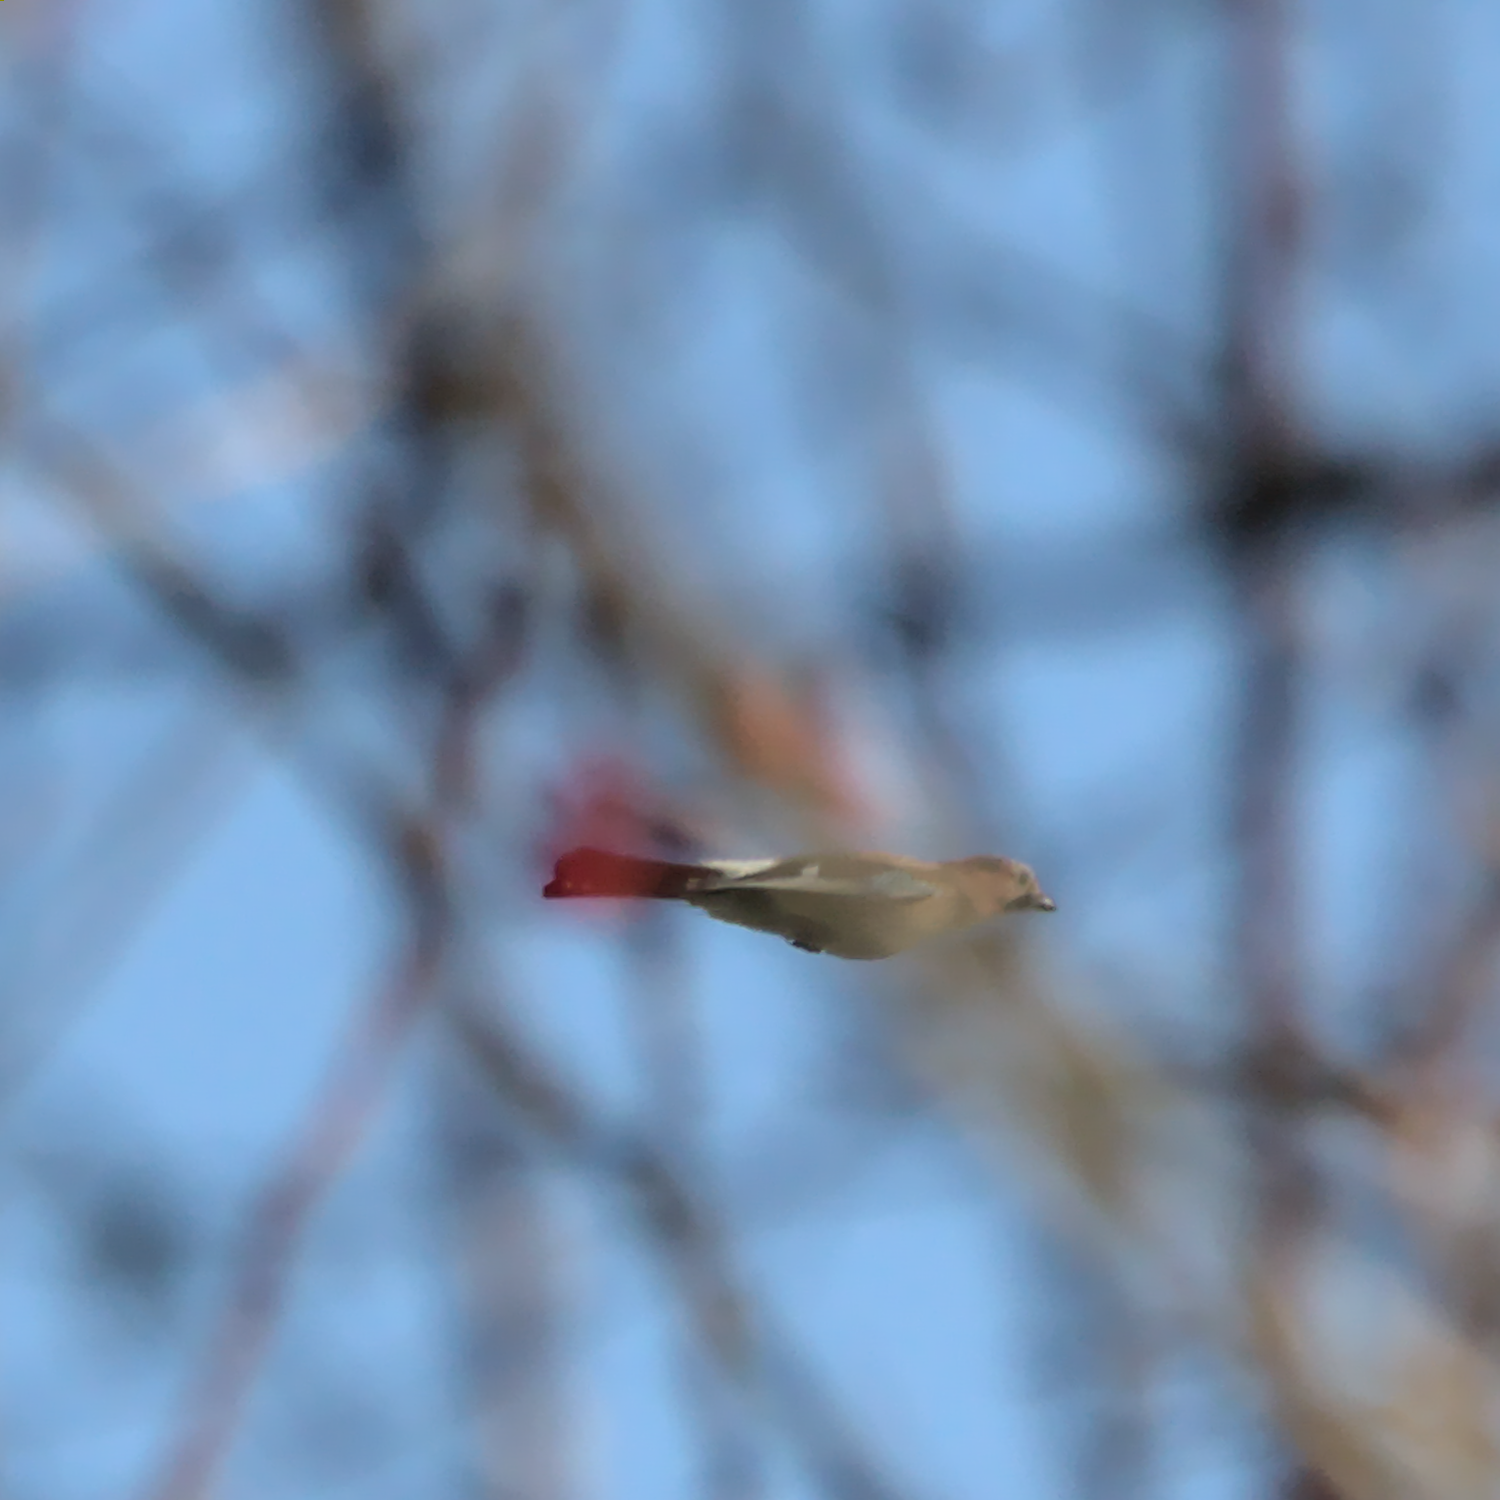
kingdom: Animalia
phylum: Chordata
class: Aves
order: Passeriformes
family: Corvidae
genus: Garrulus
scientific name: Garrulus glandarius
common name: Eurasian jay
